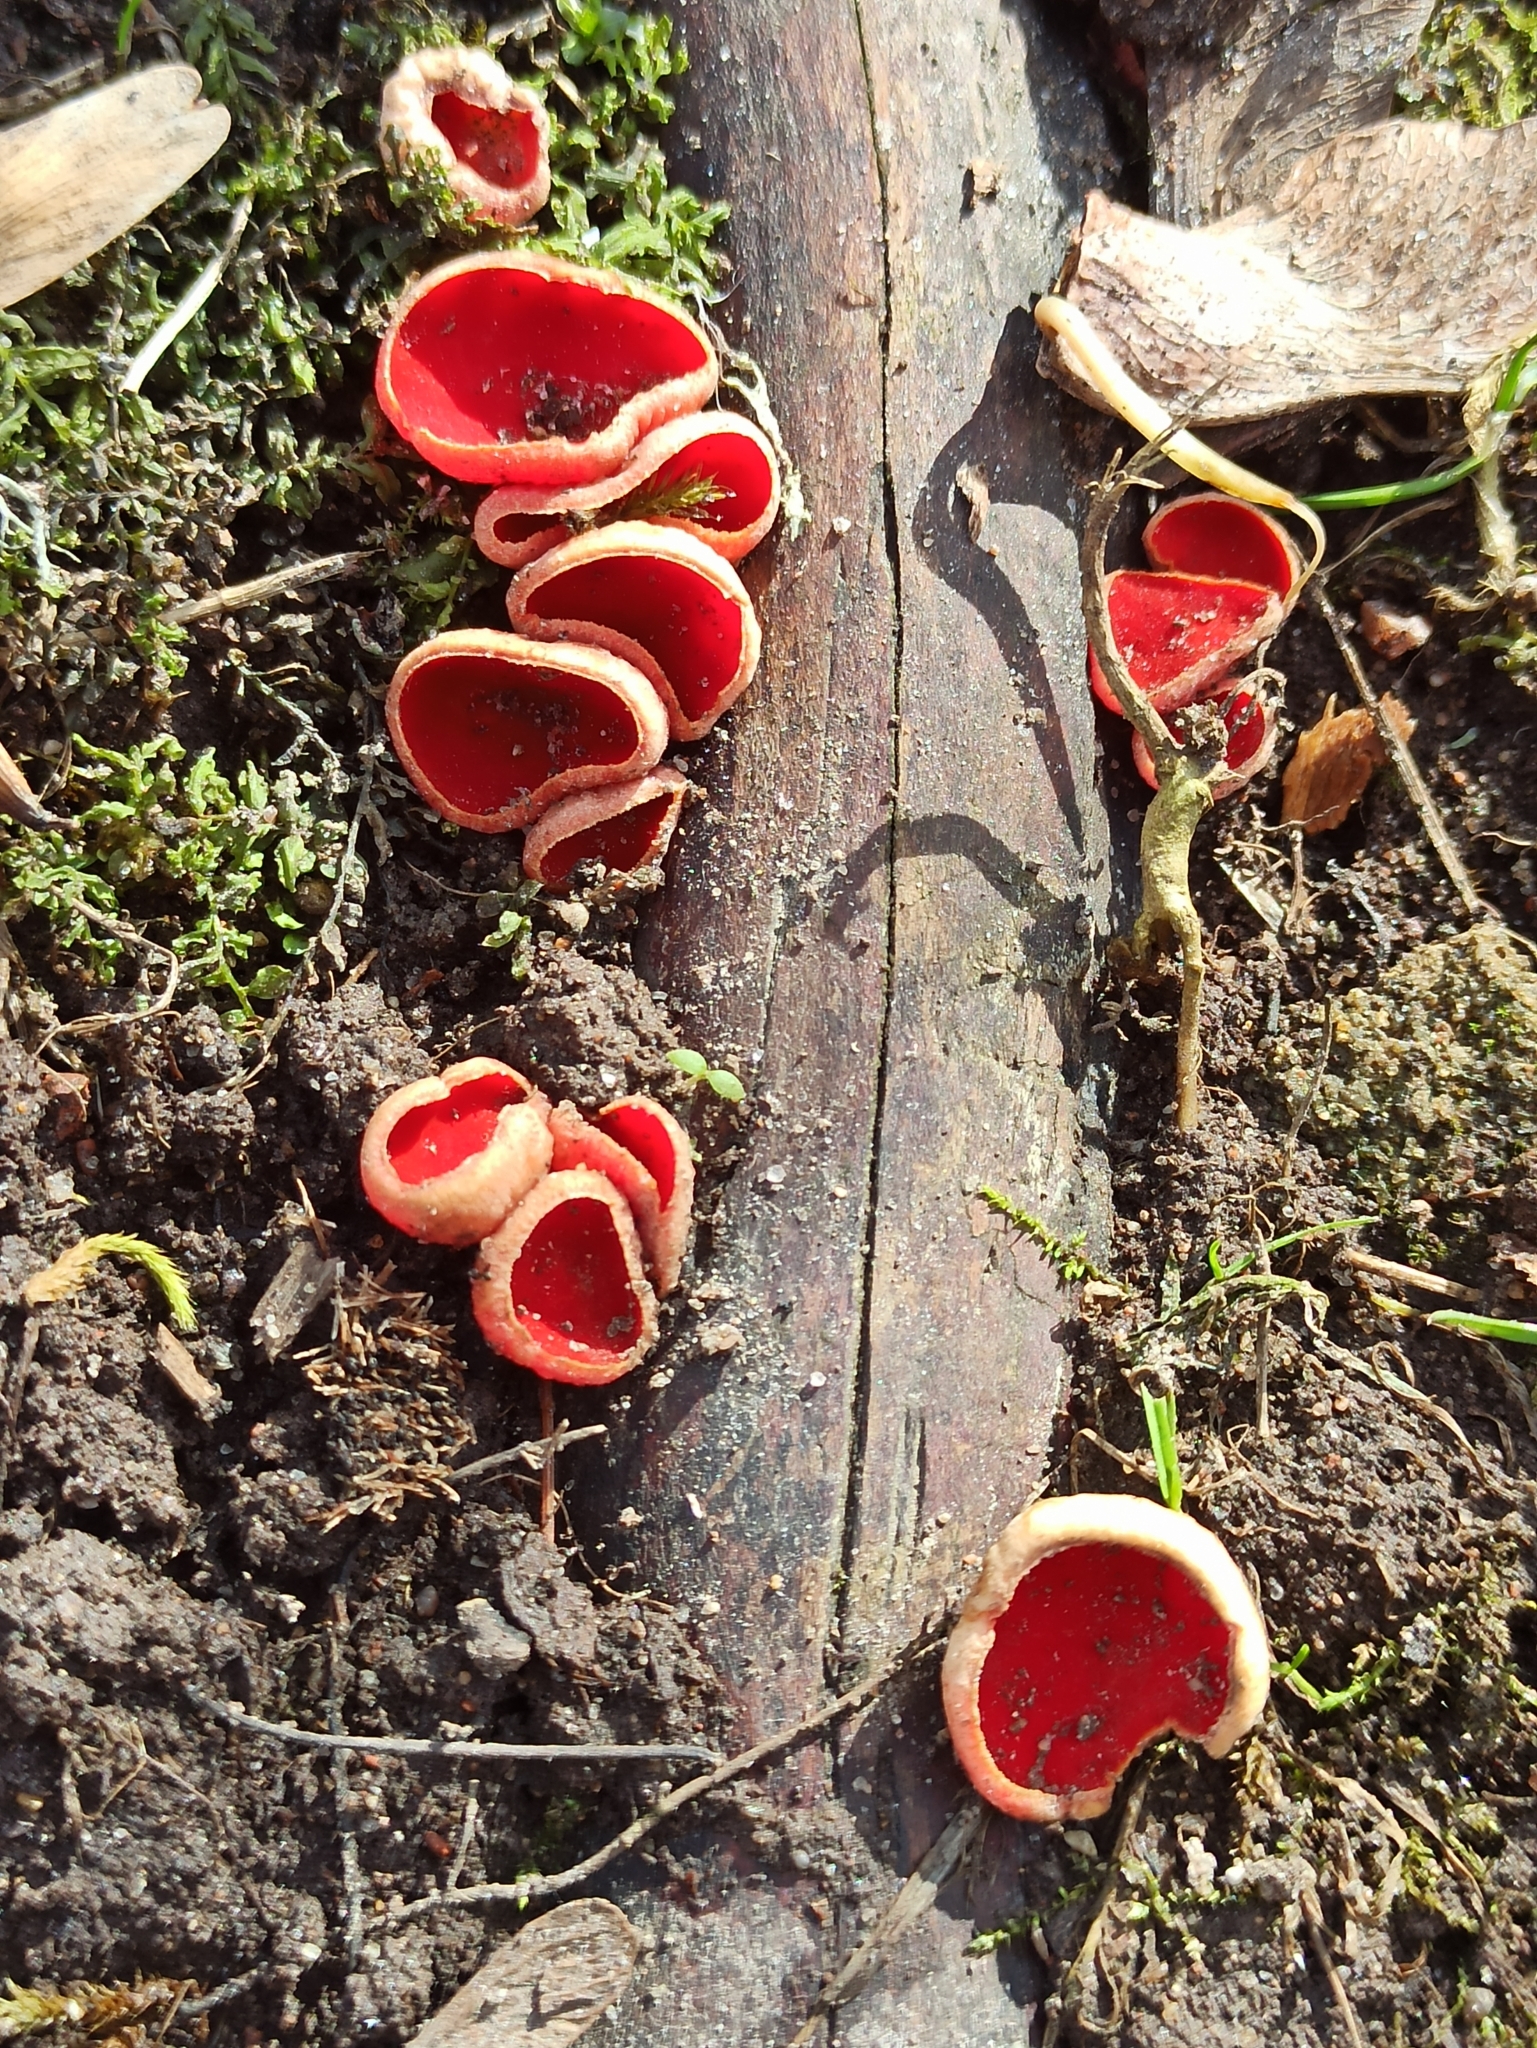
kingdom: Fungi
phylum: Ascomycota
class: Pezizomycetes
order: Pezizales
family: Sarcoscyphaceae
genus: Sarcoscypha
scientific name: Sarcoscypha austriaca
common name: Scarlet elfcup
